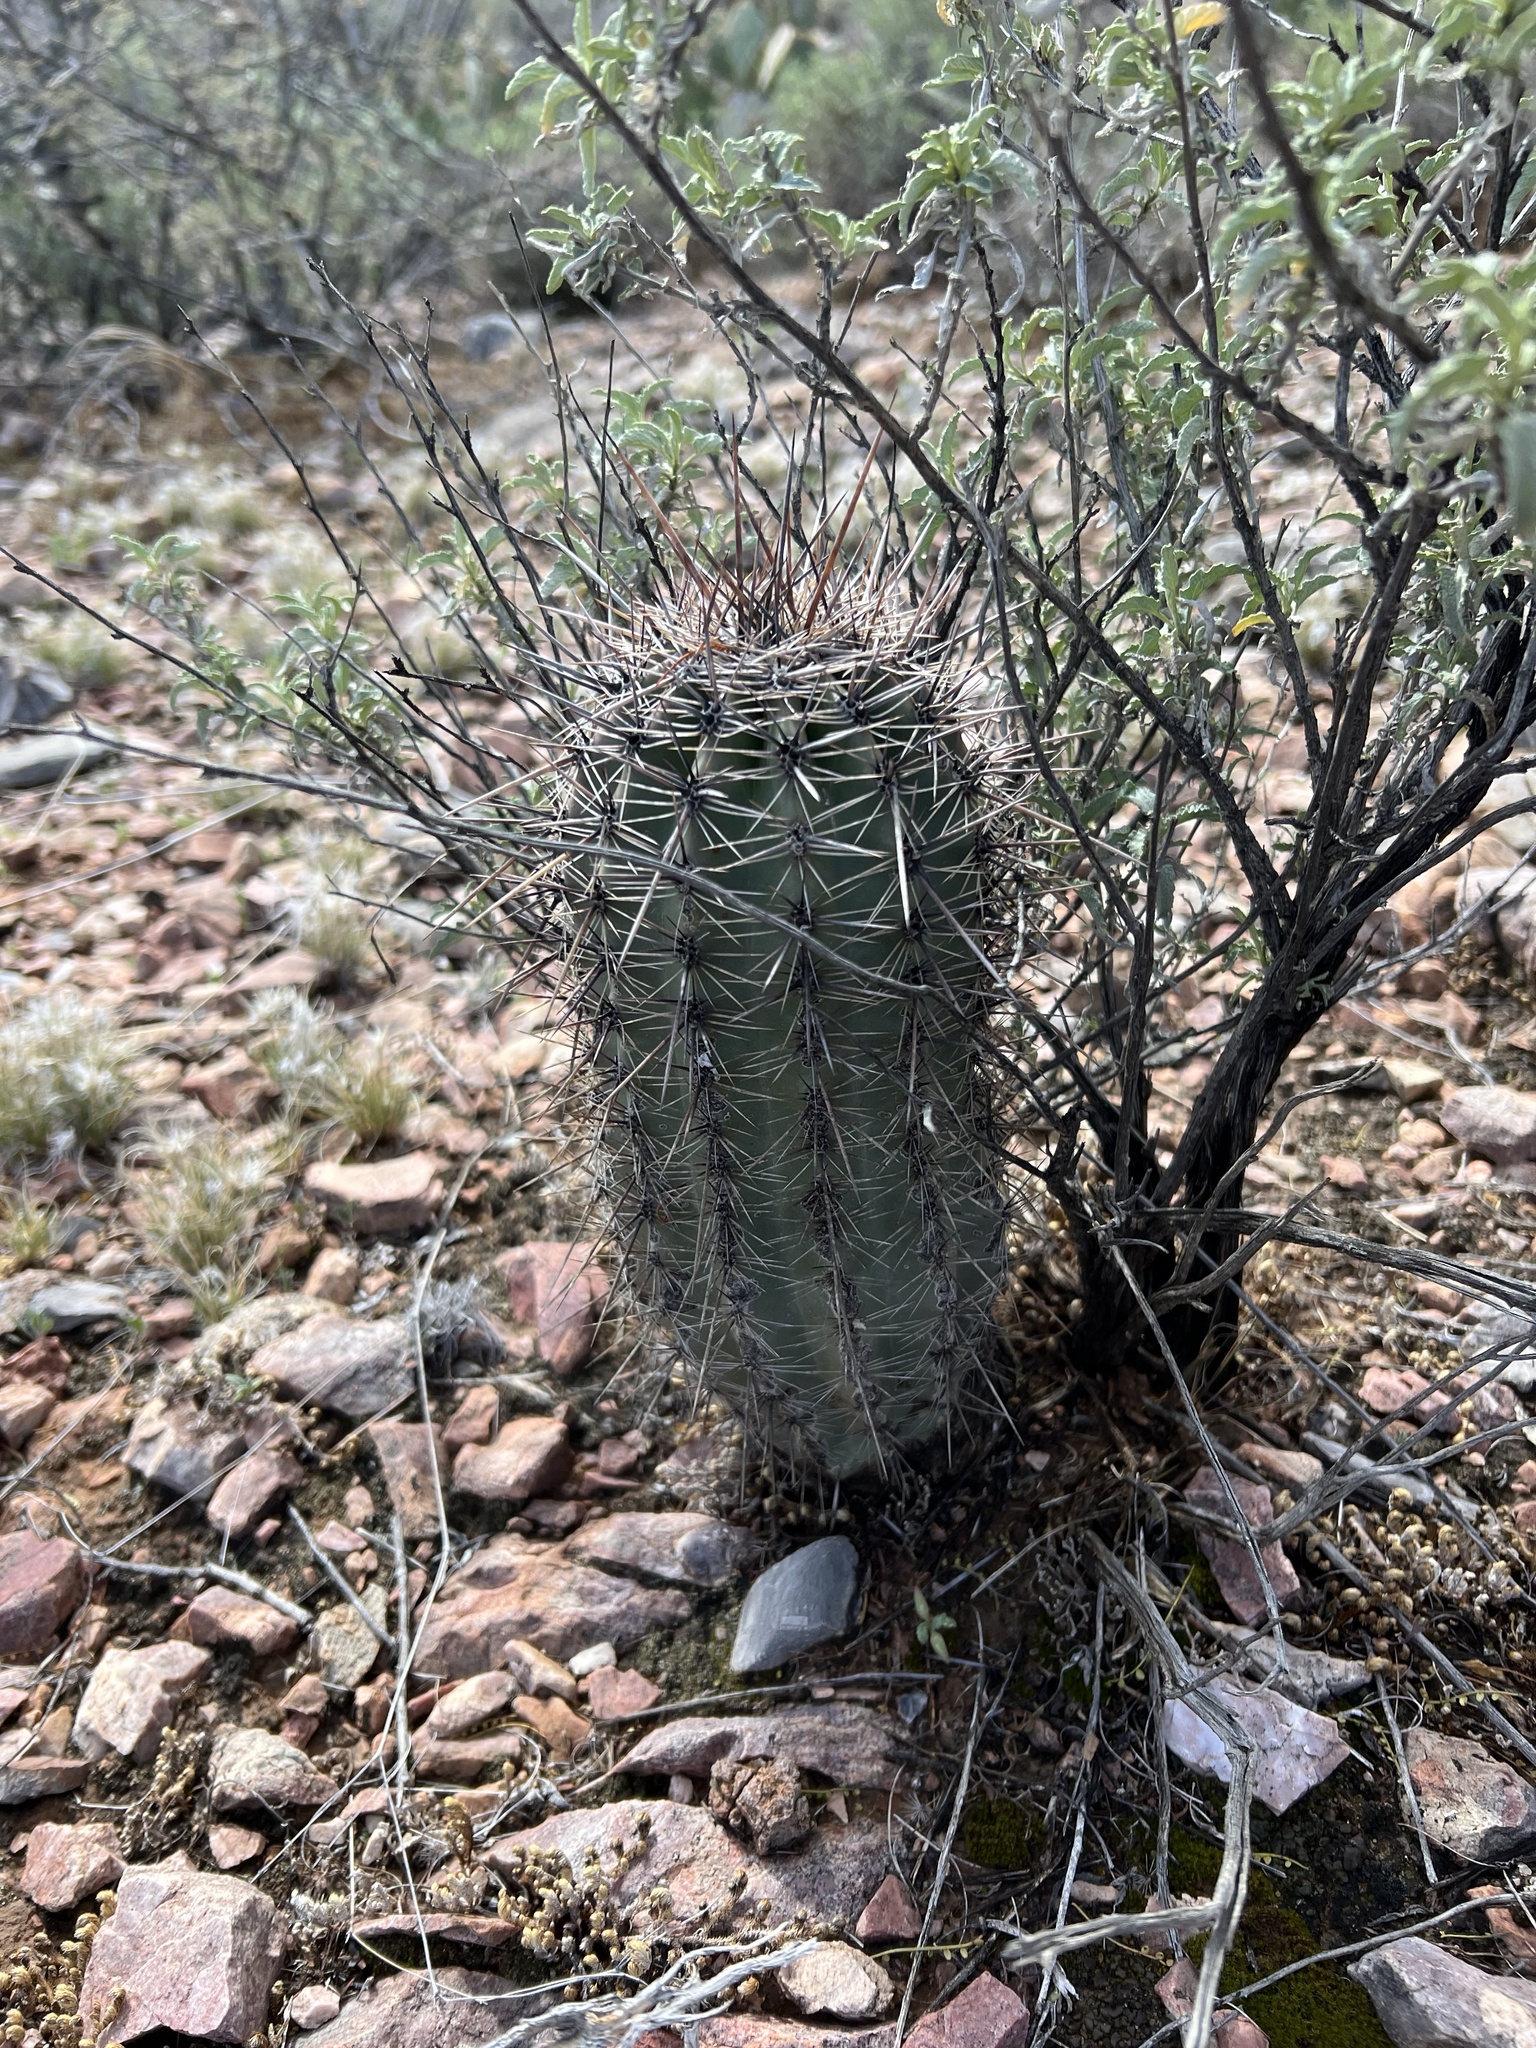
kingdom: Plantae
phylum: Tracheophyta
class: Magnoliopsida
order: Caryophyllales
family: Cactaceae
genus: Carnegiea
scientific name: Carnegiea gigantea
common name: Saguaro
